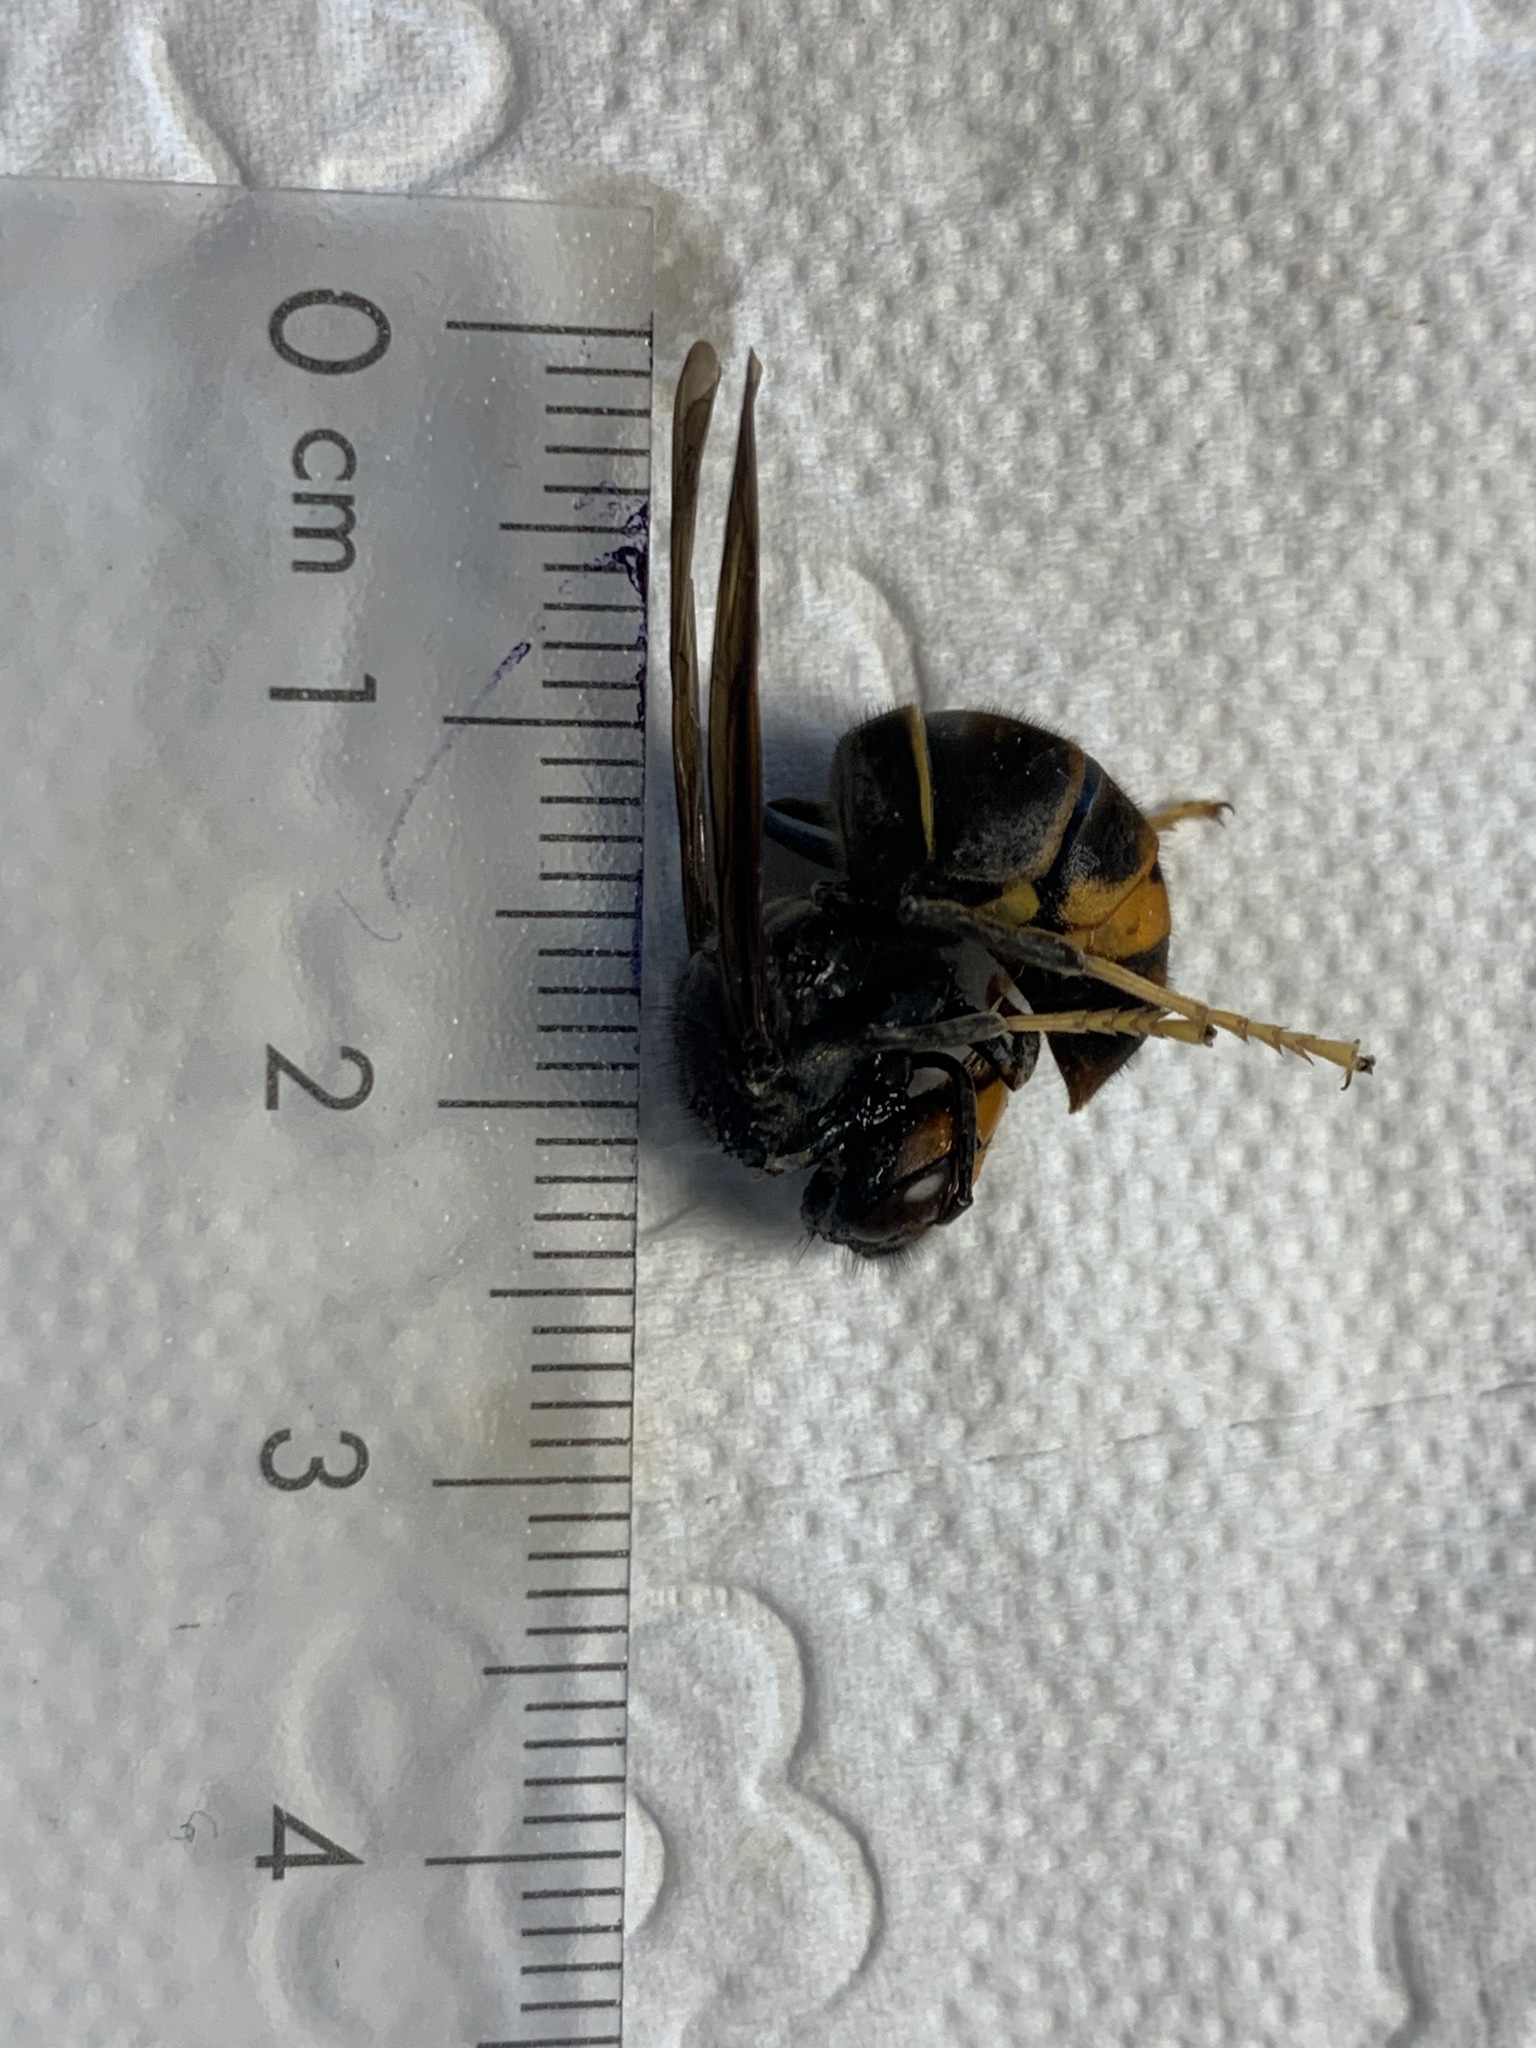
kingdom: Animalia
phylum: Arthropoda
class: Insecta
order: Hymenoptera
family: Vespidae
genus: Vespa
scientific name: Vespa velutina
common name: Asian hornet
